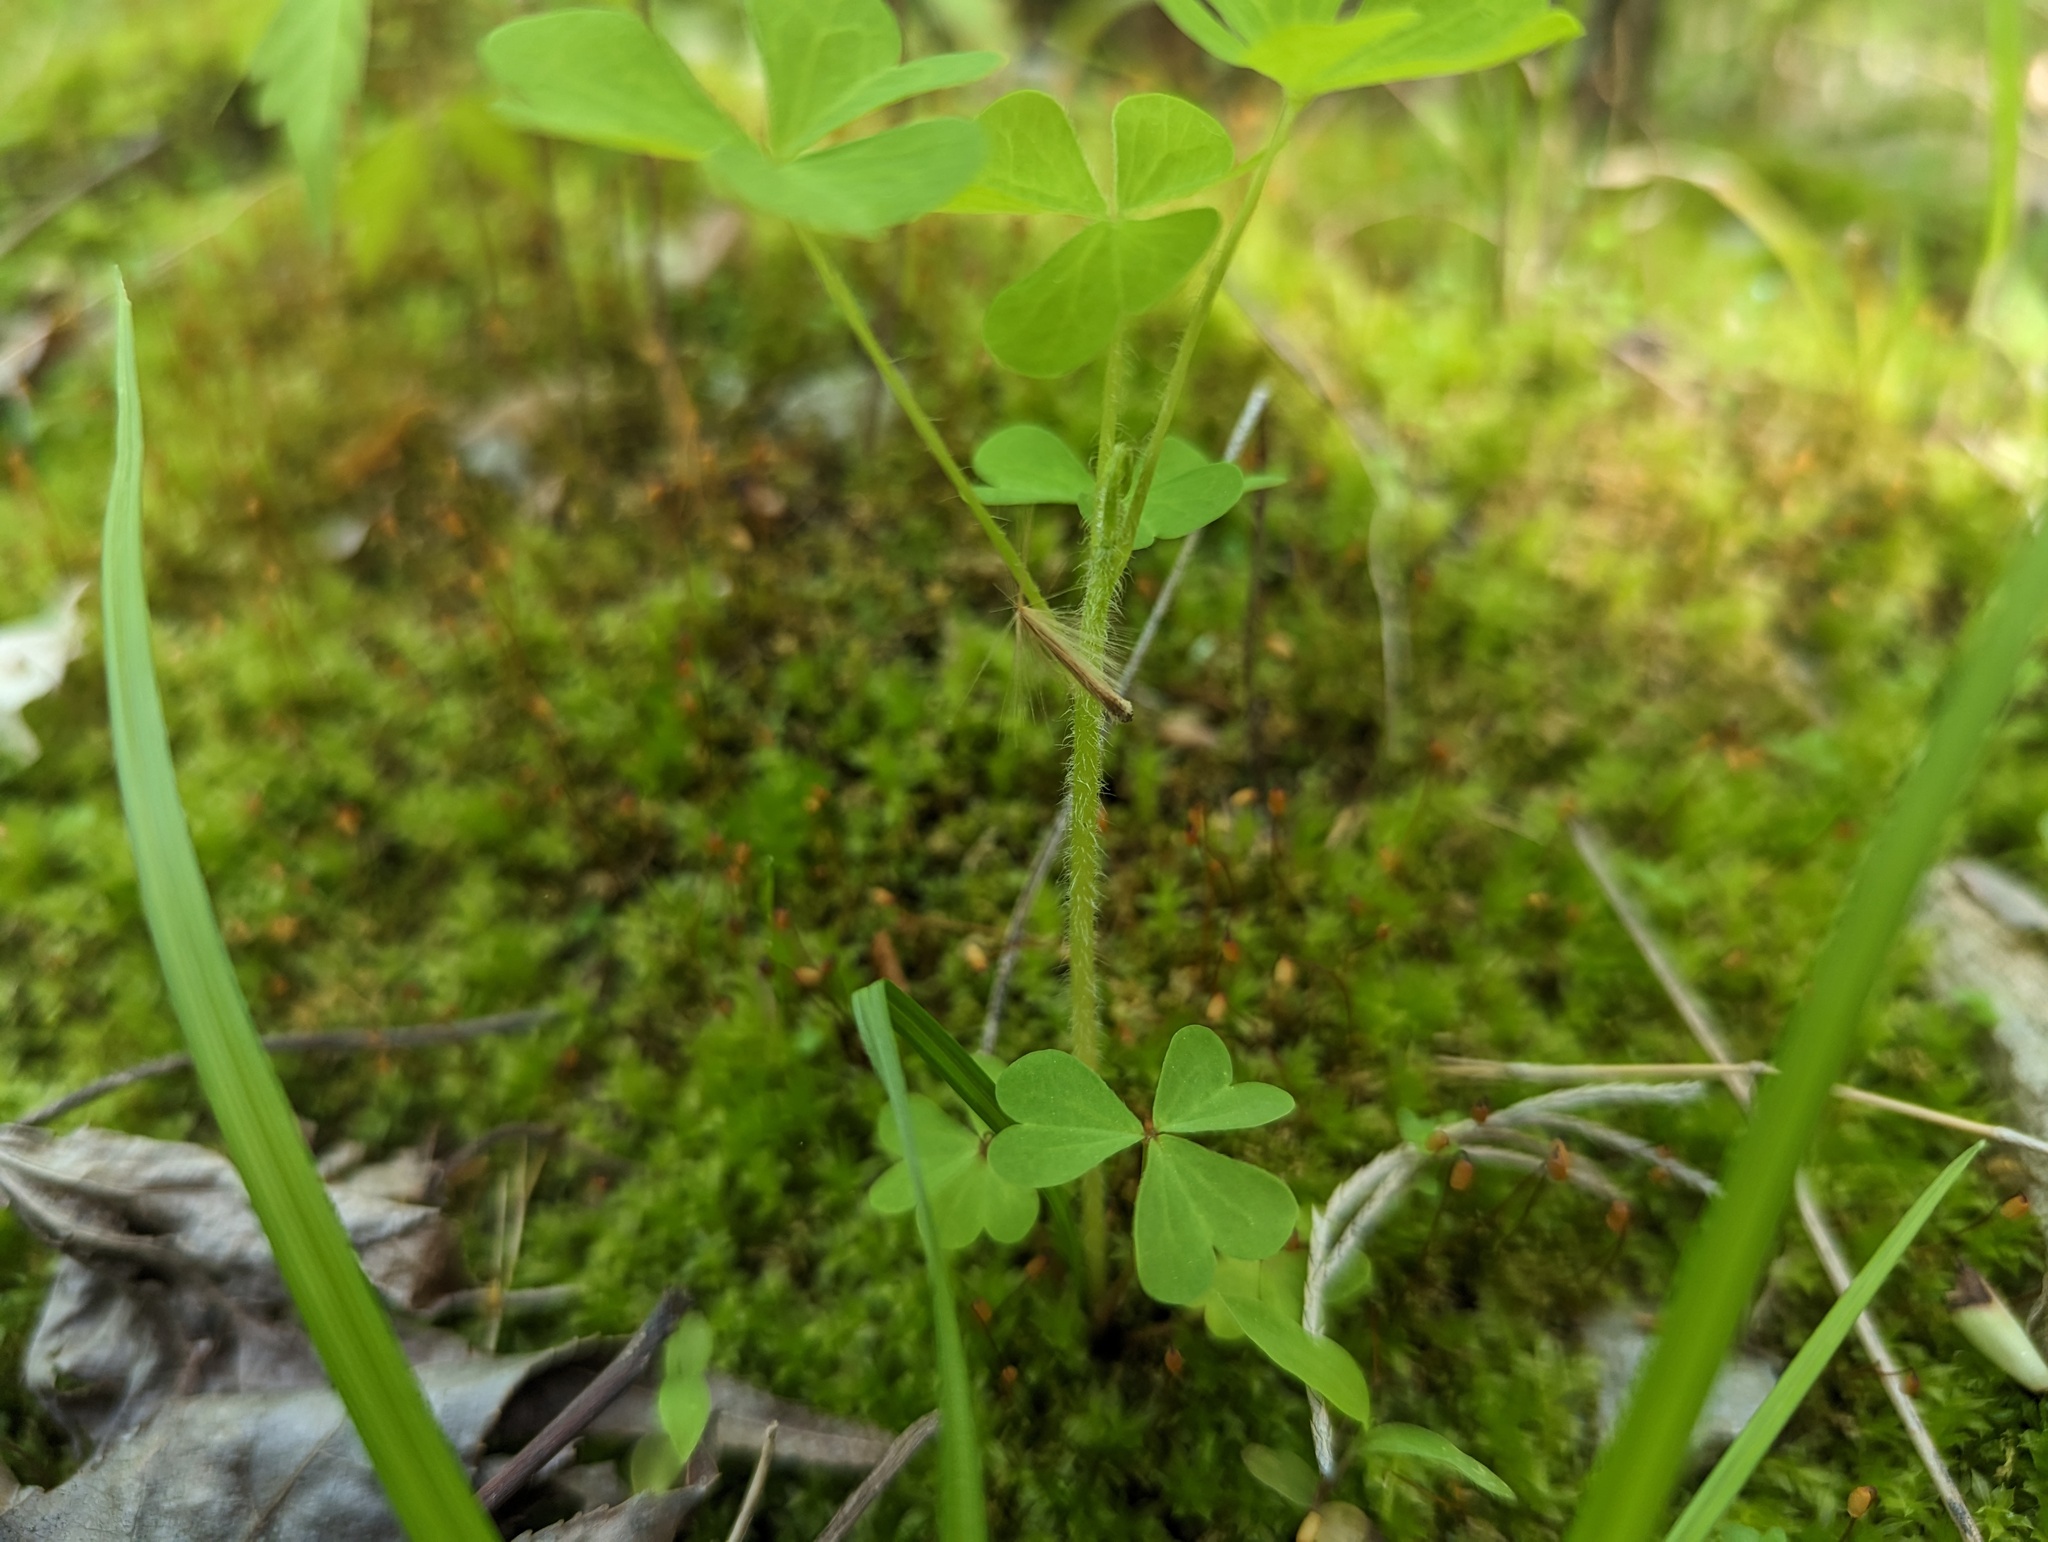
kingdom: Plantae
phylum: Tracheophyta
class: Magnoliopsida
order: Oxalidales
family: Oxalidaceae
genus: Oxalis
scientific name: Oxalis stricta
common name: Upright yellow-sorrel
